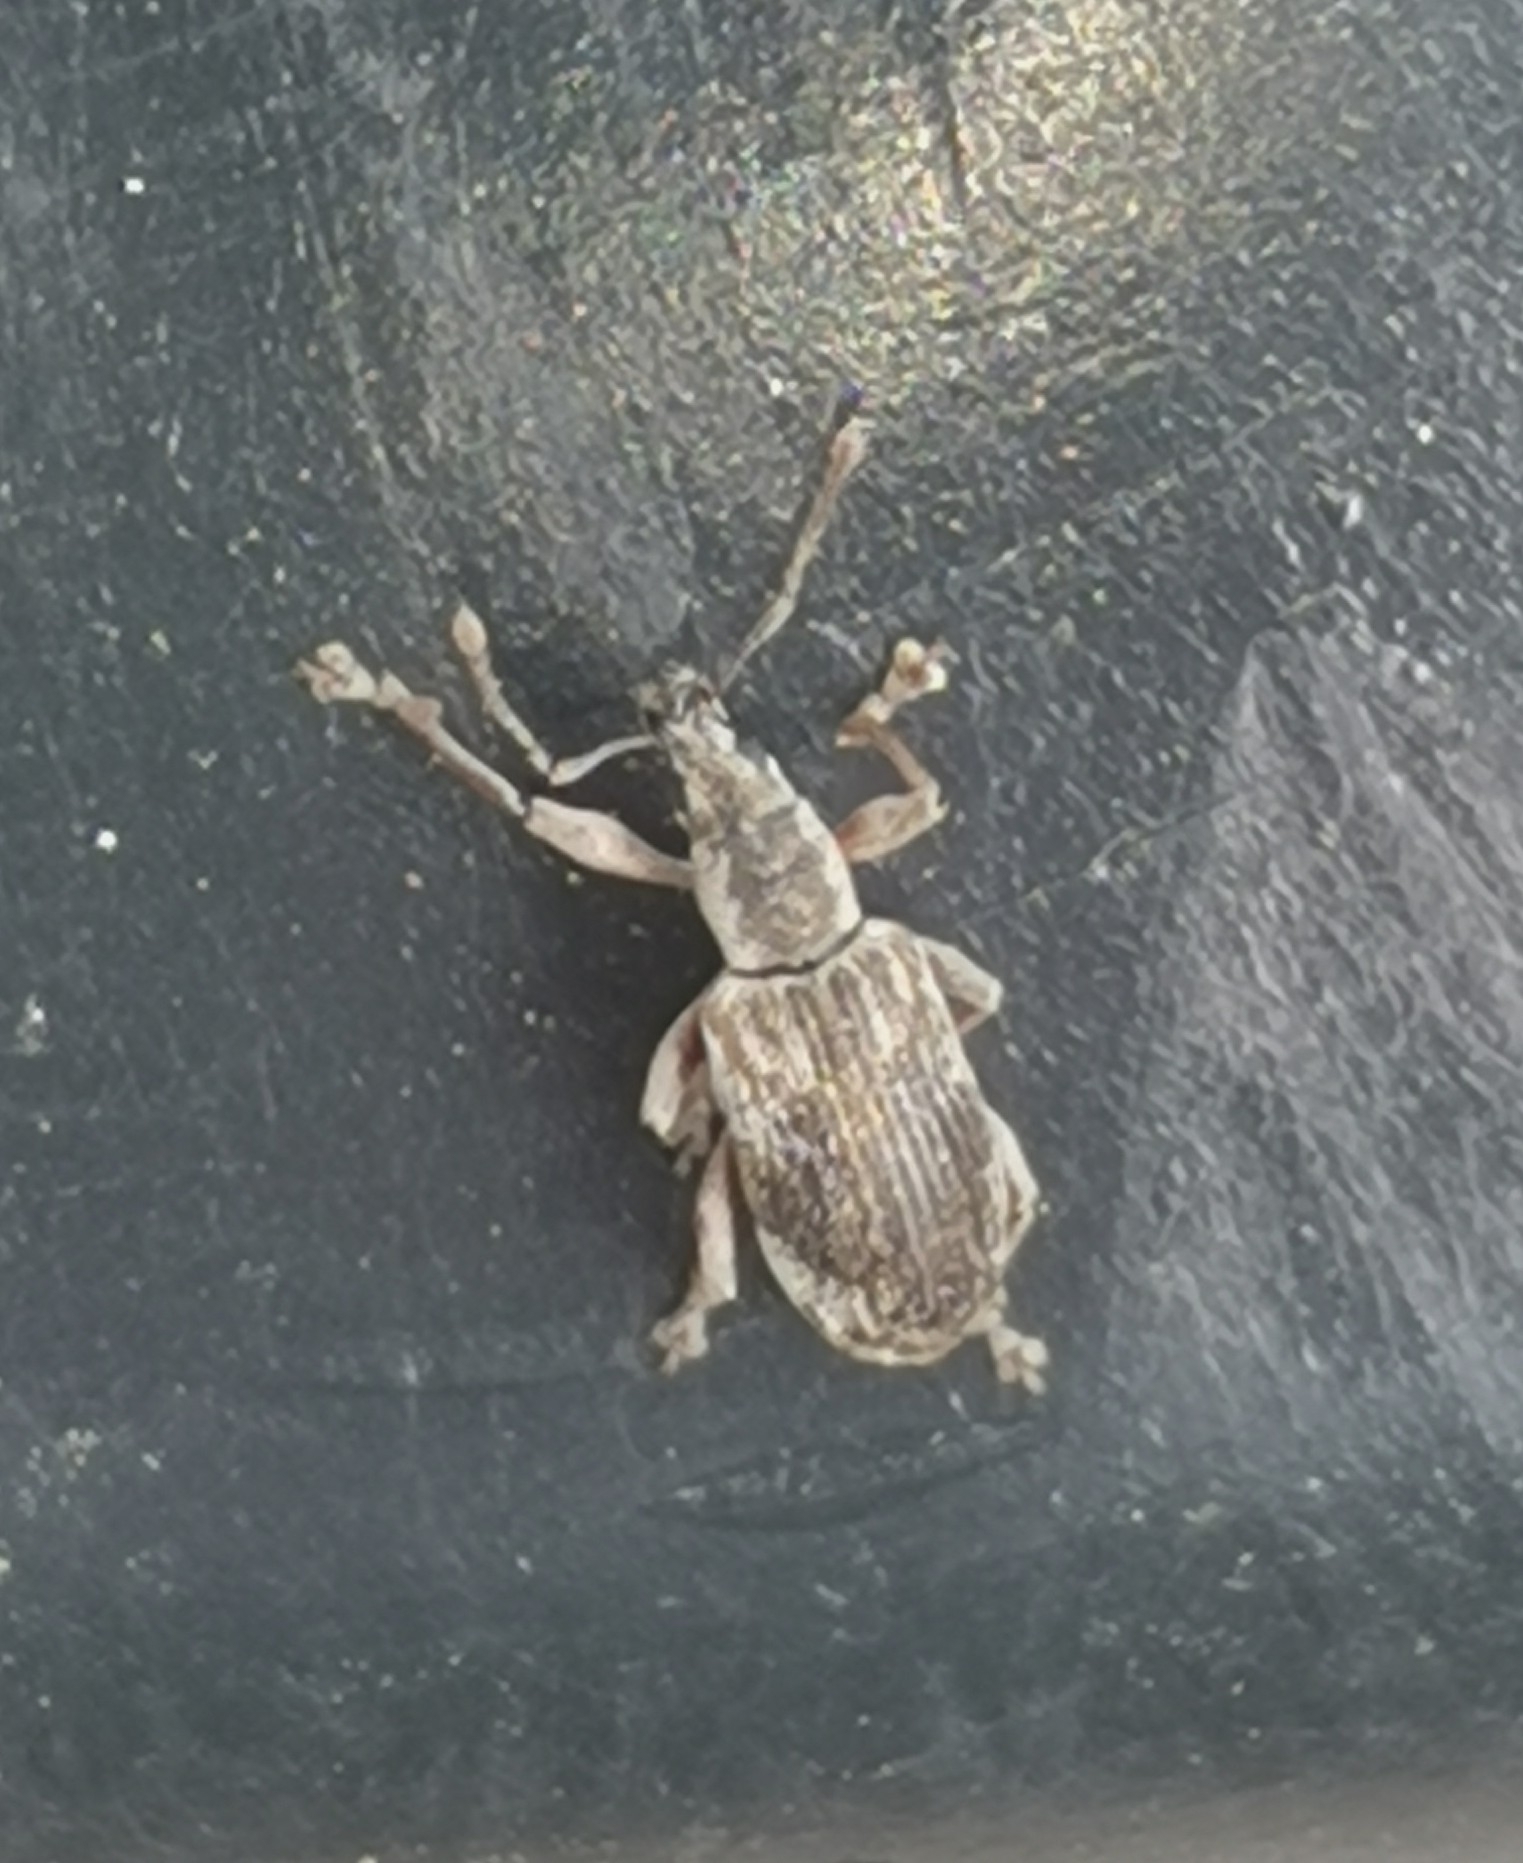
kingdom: Animalia
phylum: Arthropoda
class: Insecta
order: Coleoptera
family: Curculionidae
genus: Polydrusus
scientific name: Polydrusus tereticollis
